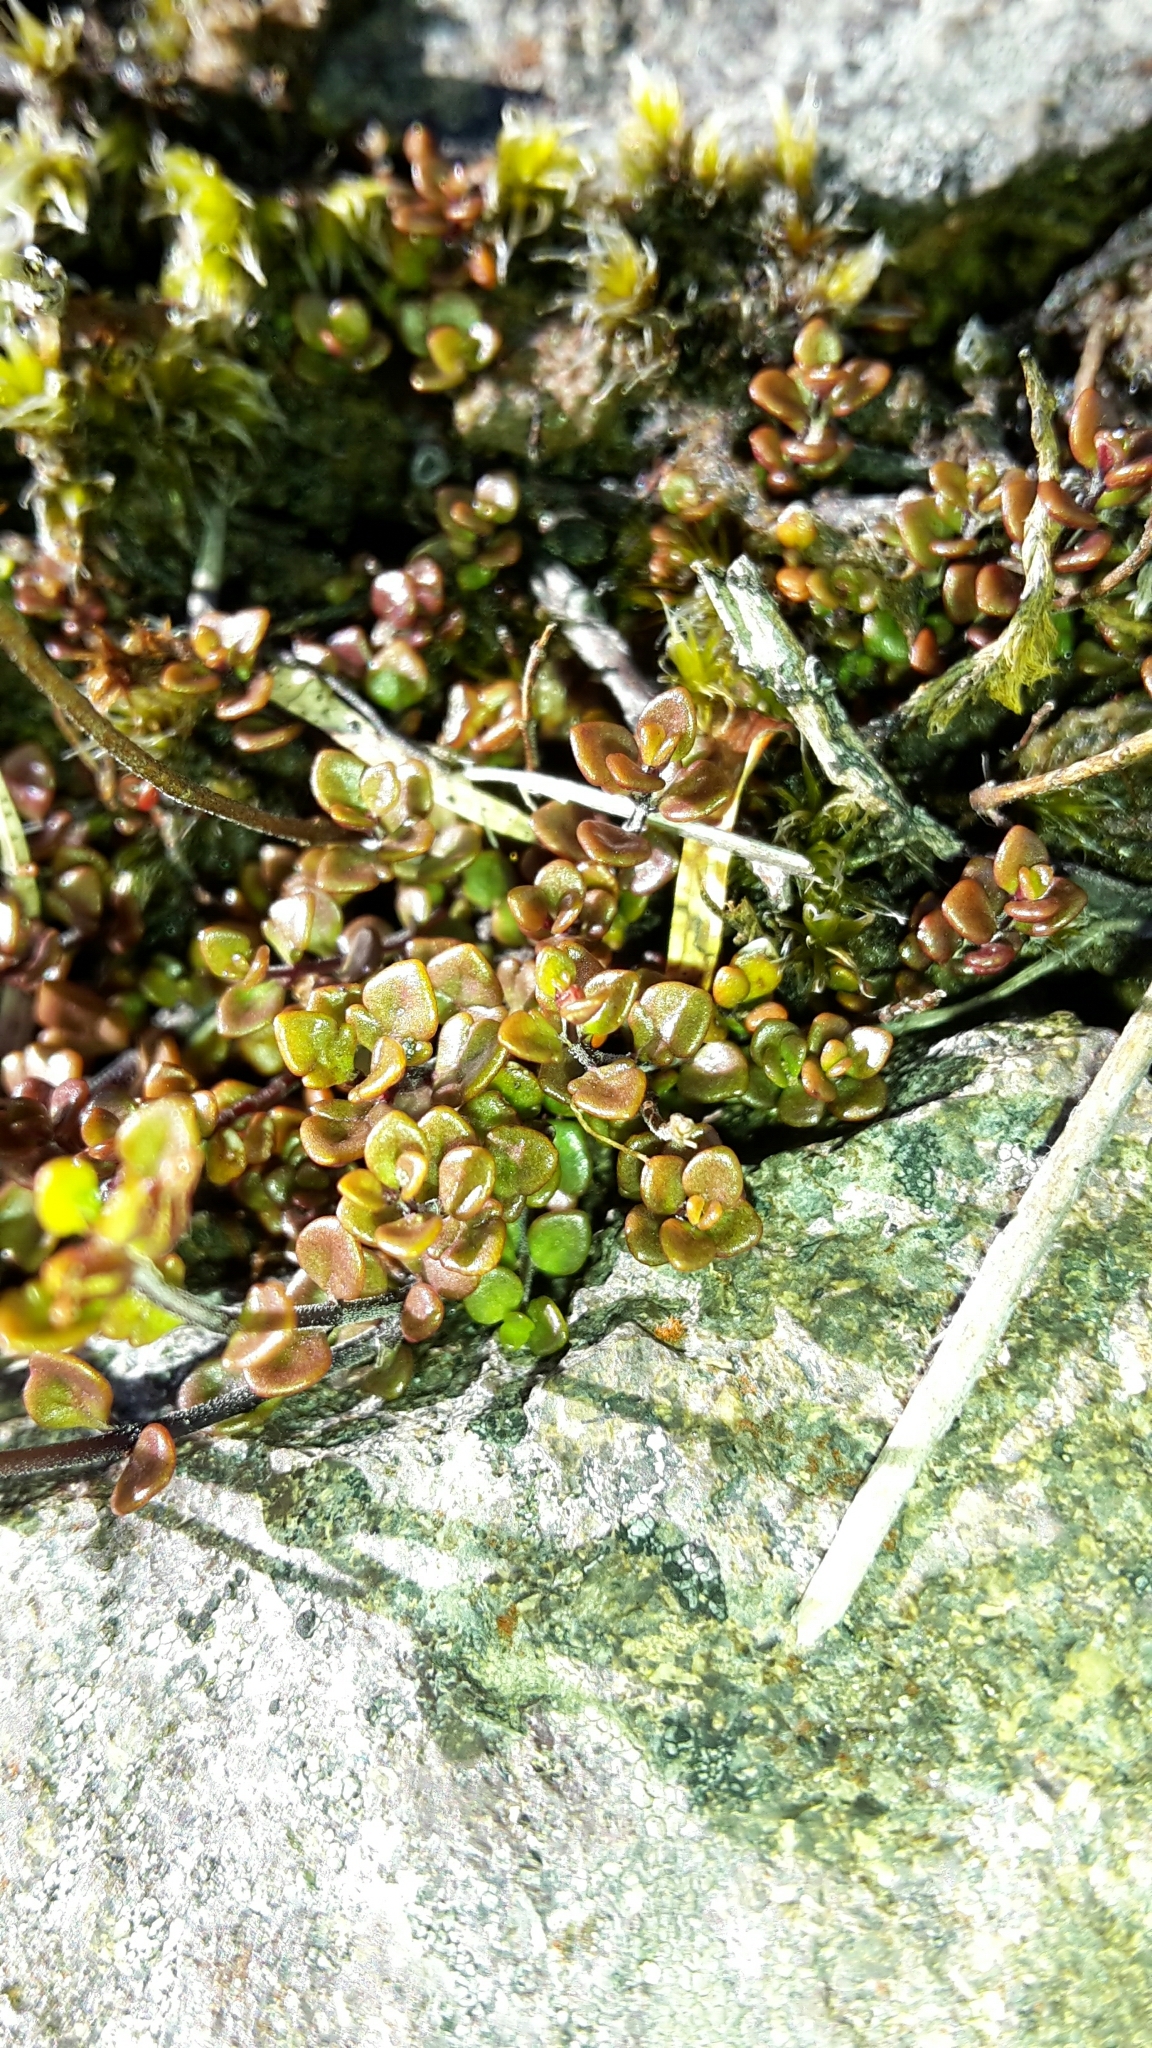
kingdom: Plantae
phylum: Tracheophyta
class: Magnoliopsida
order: Lamiales
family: Orobanchaceae
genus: Euphrasia
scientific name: Euphrasia cuneata
